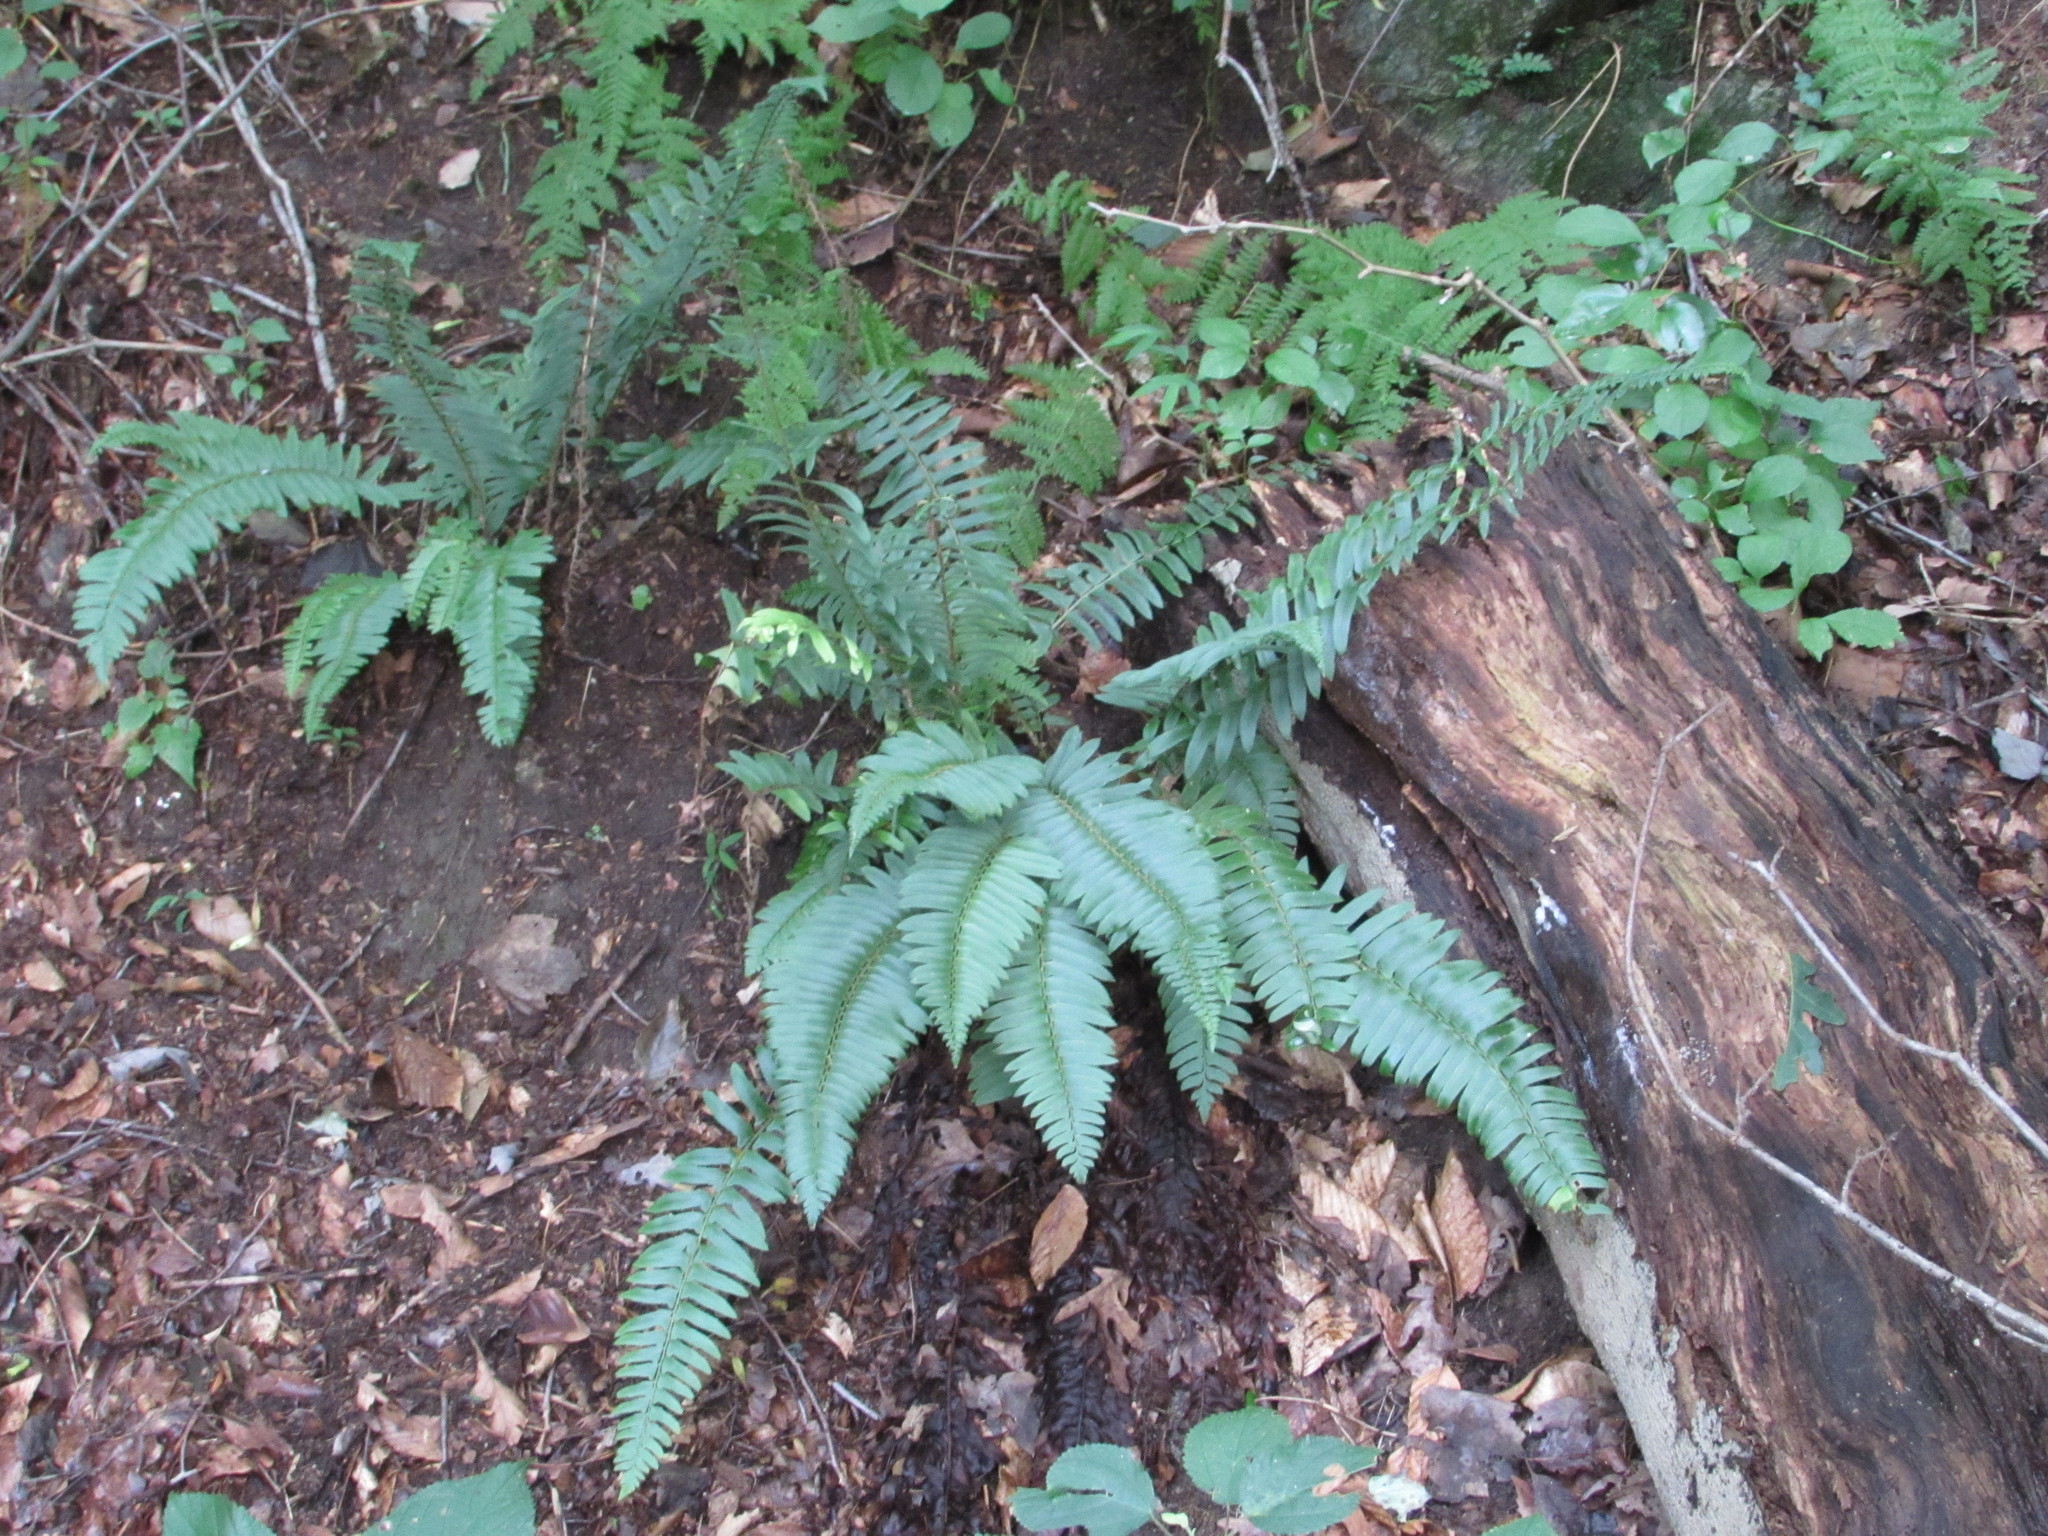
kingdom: Plantae
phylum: Tracheophyta
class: Polypodiopsida
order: Polypodiales
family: Dryopteridaceae
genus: Polystichum
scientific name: Polystichum acrostichoides
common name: Christmas fern
